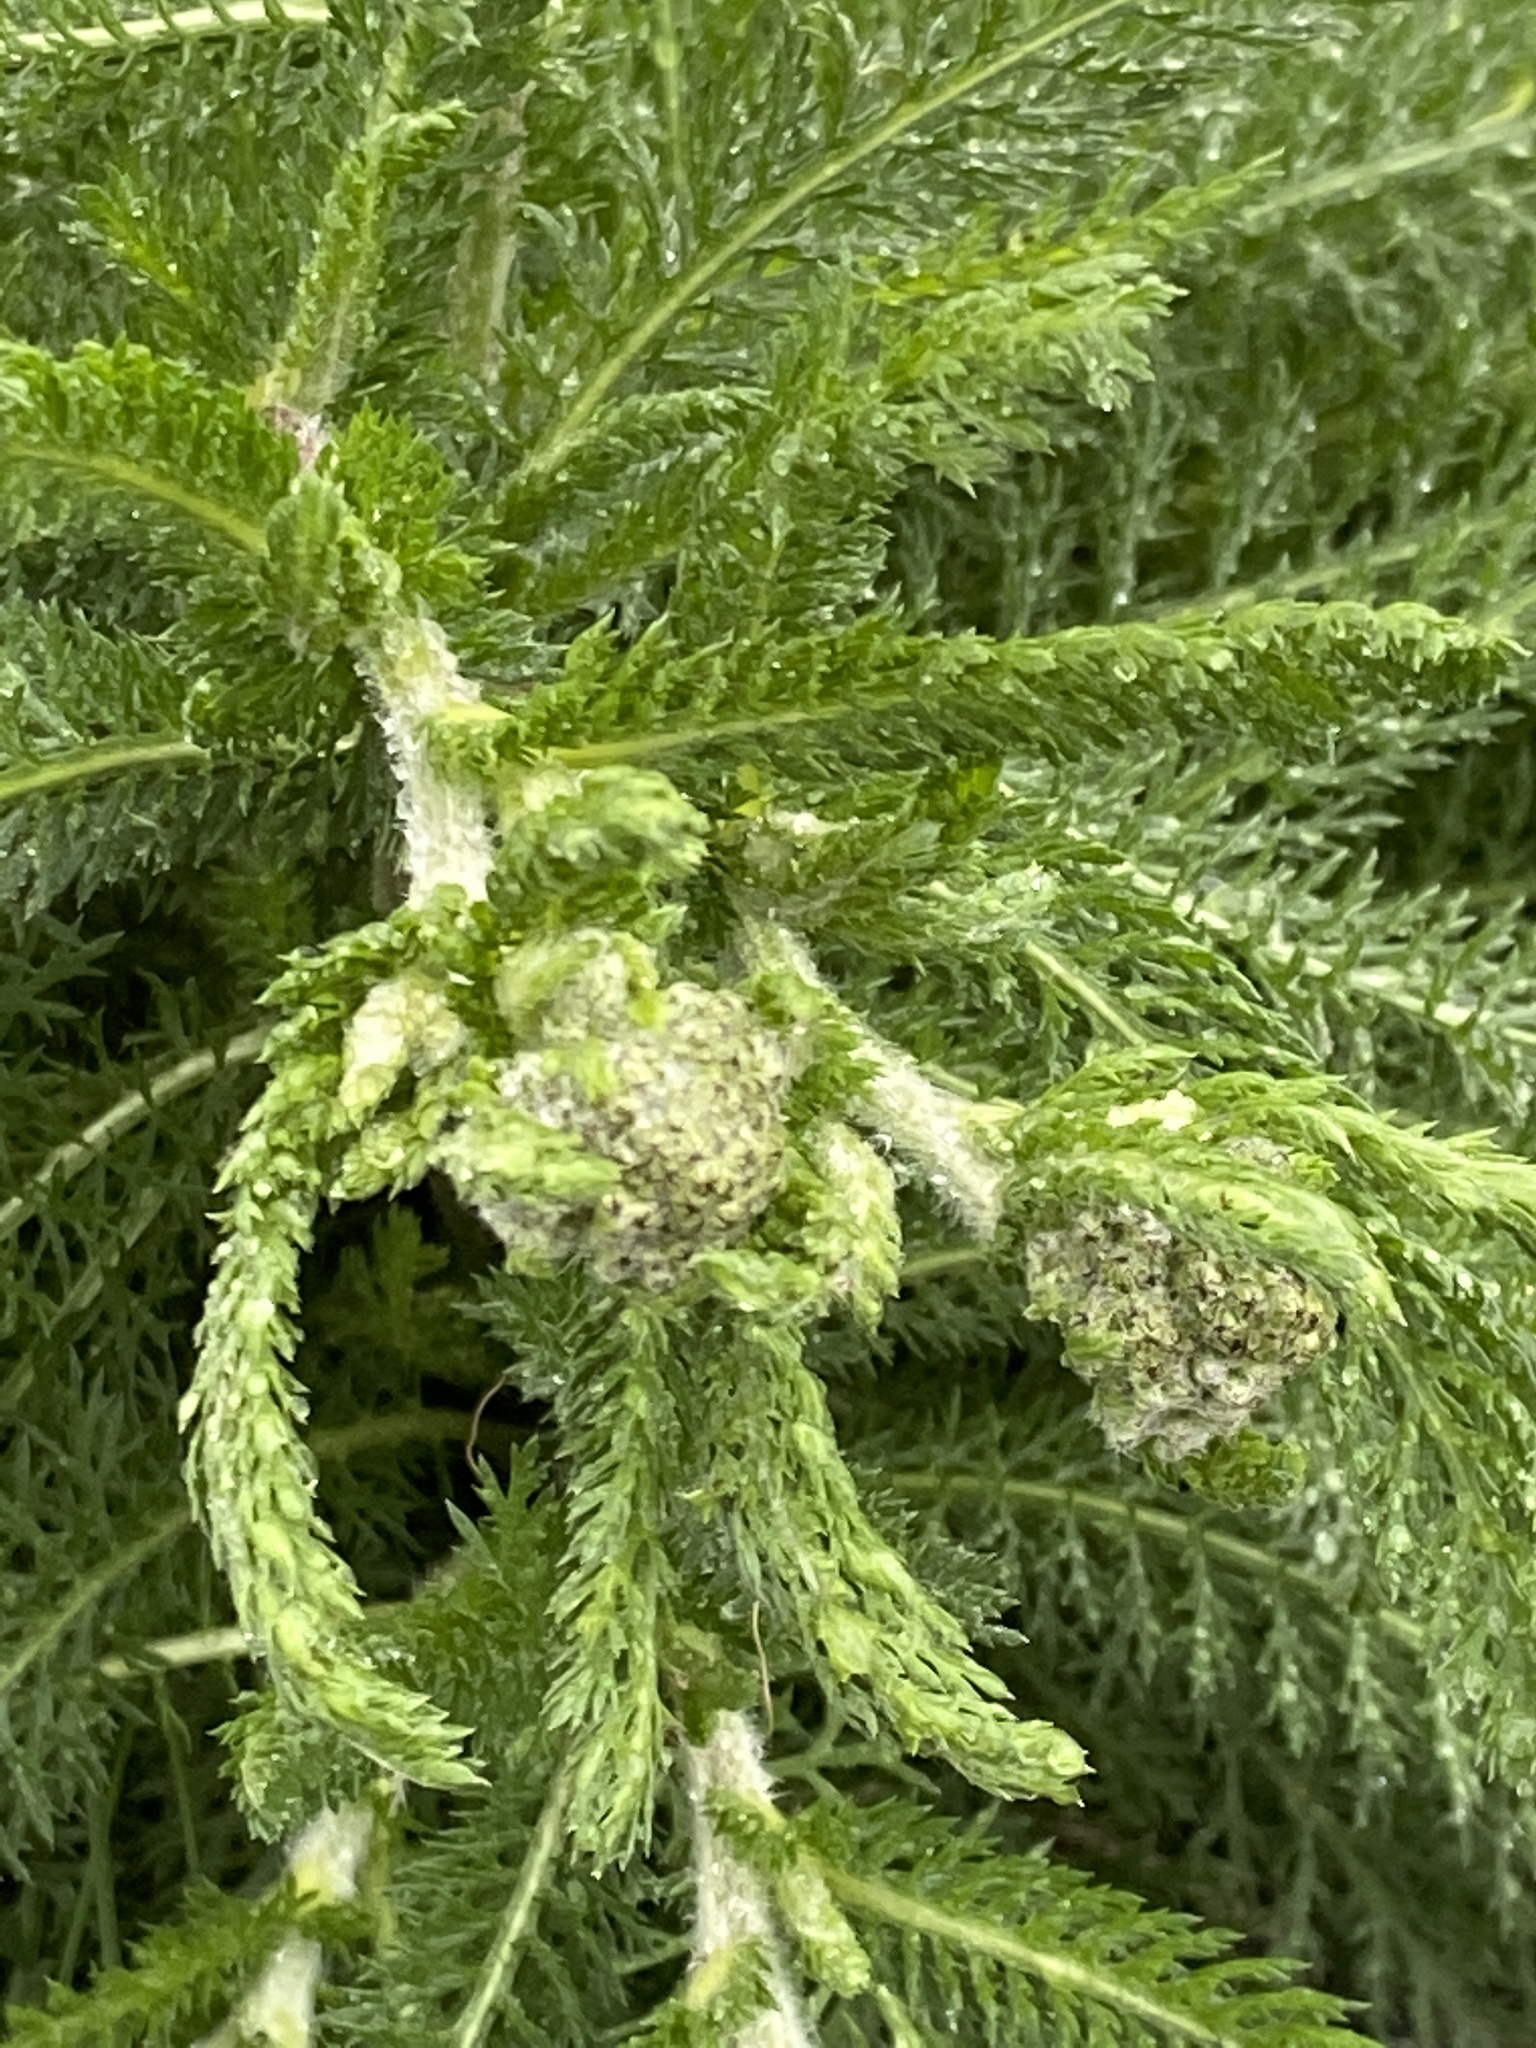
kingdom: Plantae
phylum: Tracheophyta
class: Magnoliopsida
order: Asterales
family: Asteraceae
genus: Achillea
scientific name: Achillea millefolium
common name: Yarrow
